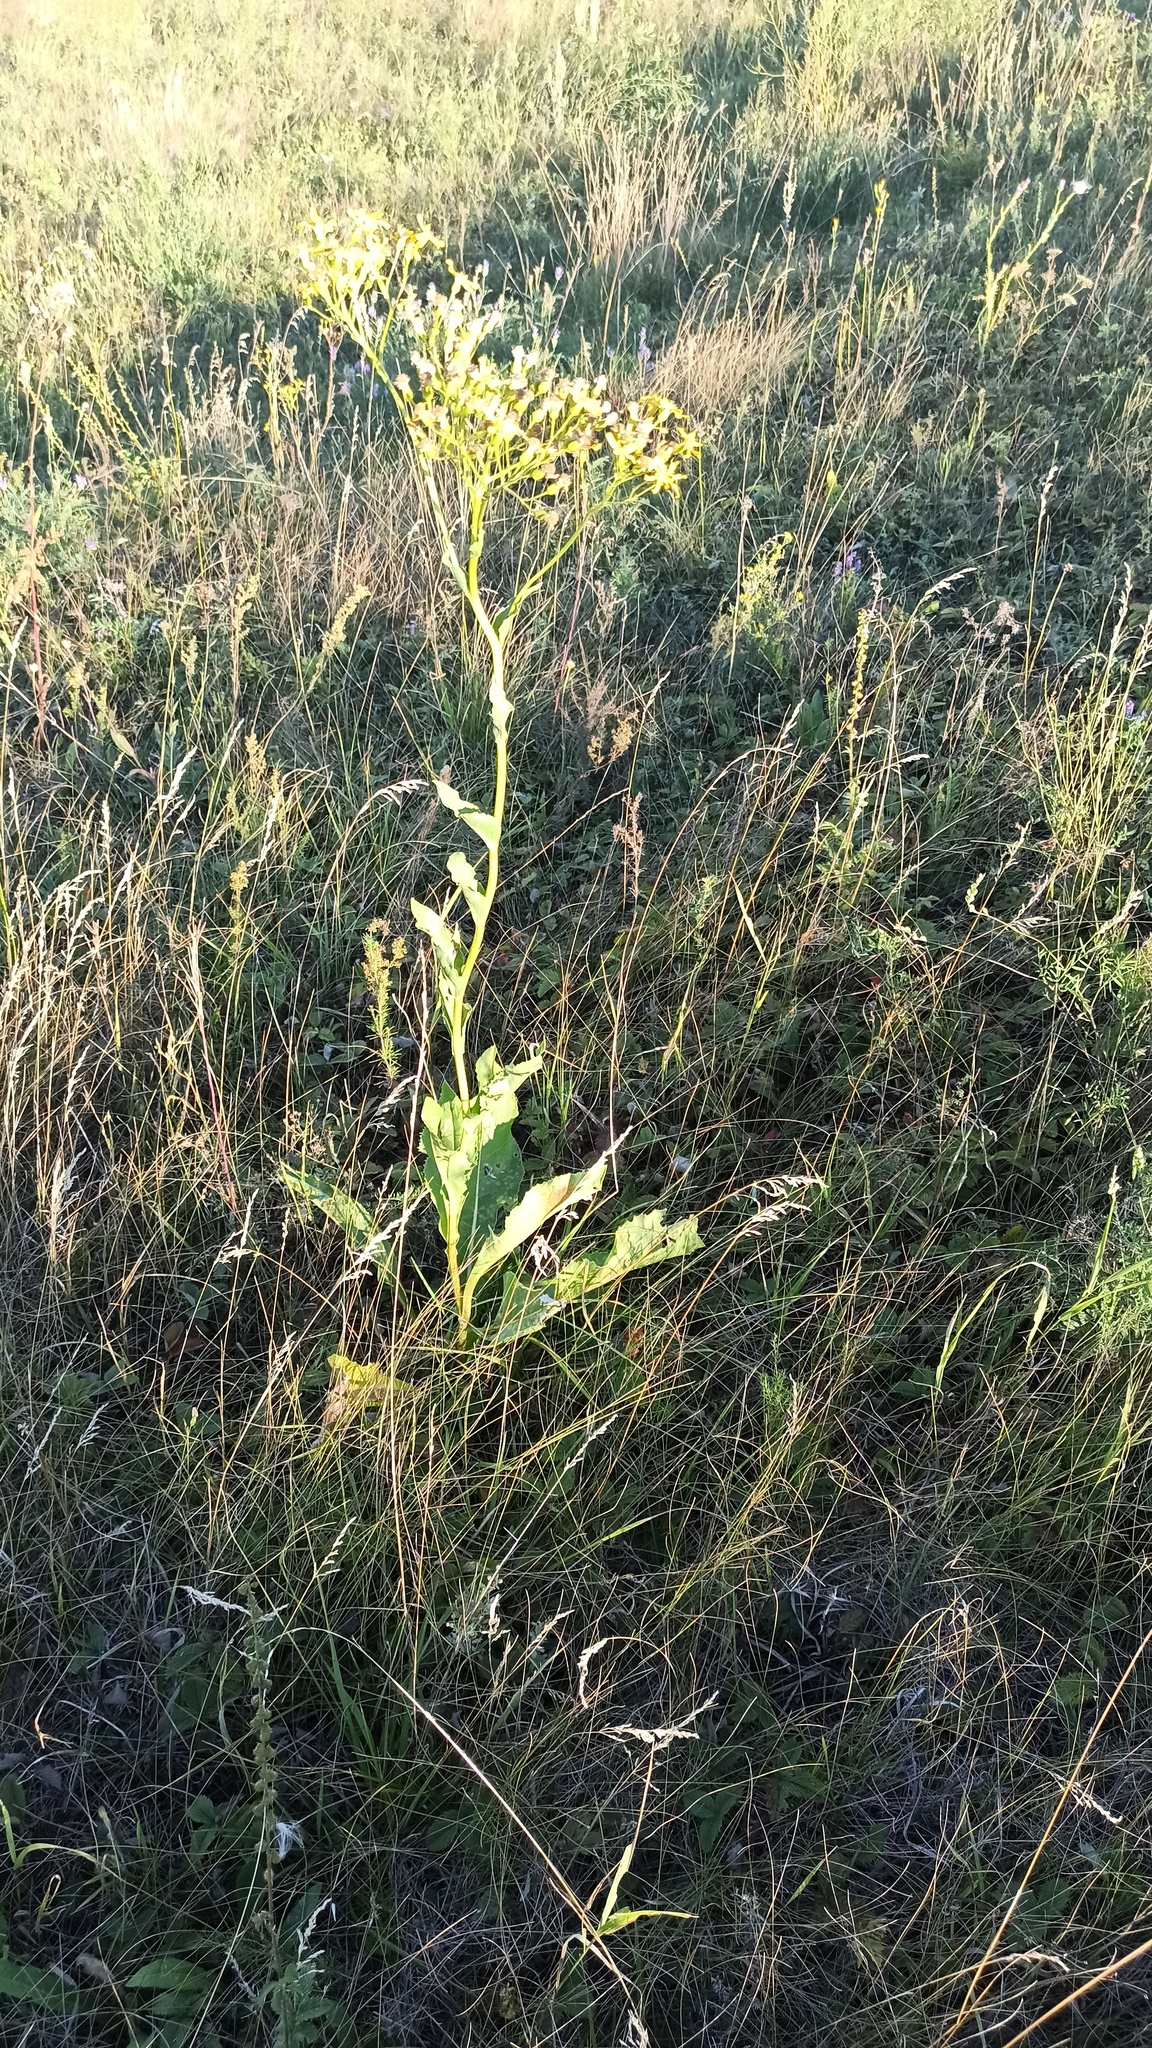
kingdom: Plantae
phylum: Tracheophyta
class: Magnoliopsida
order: Asterales
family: Asteraceae
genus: Senecio
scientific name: Senecio doria
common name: Golden ragwort
